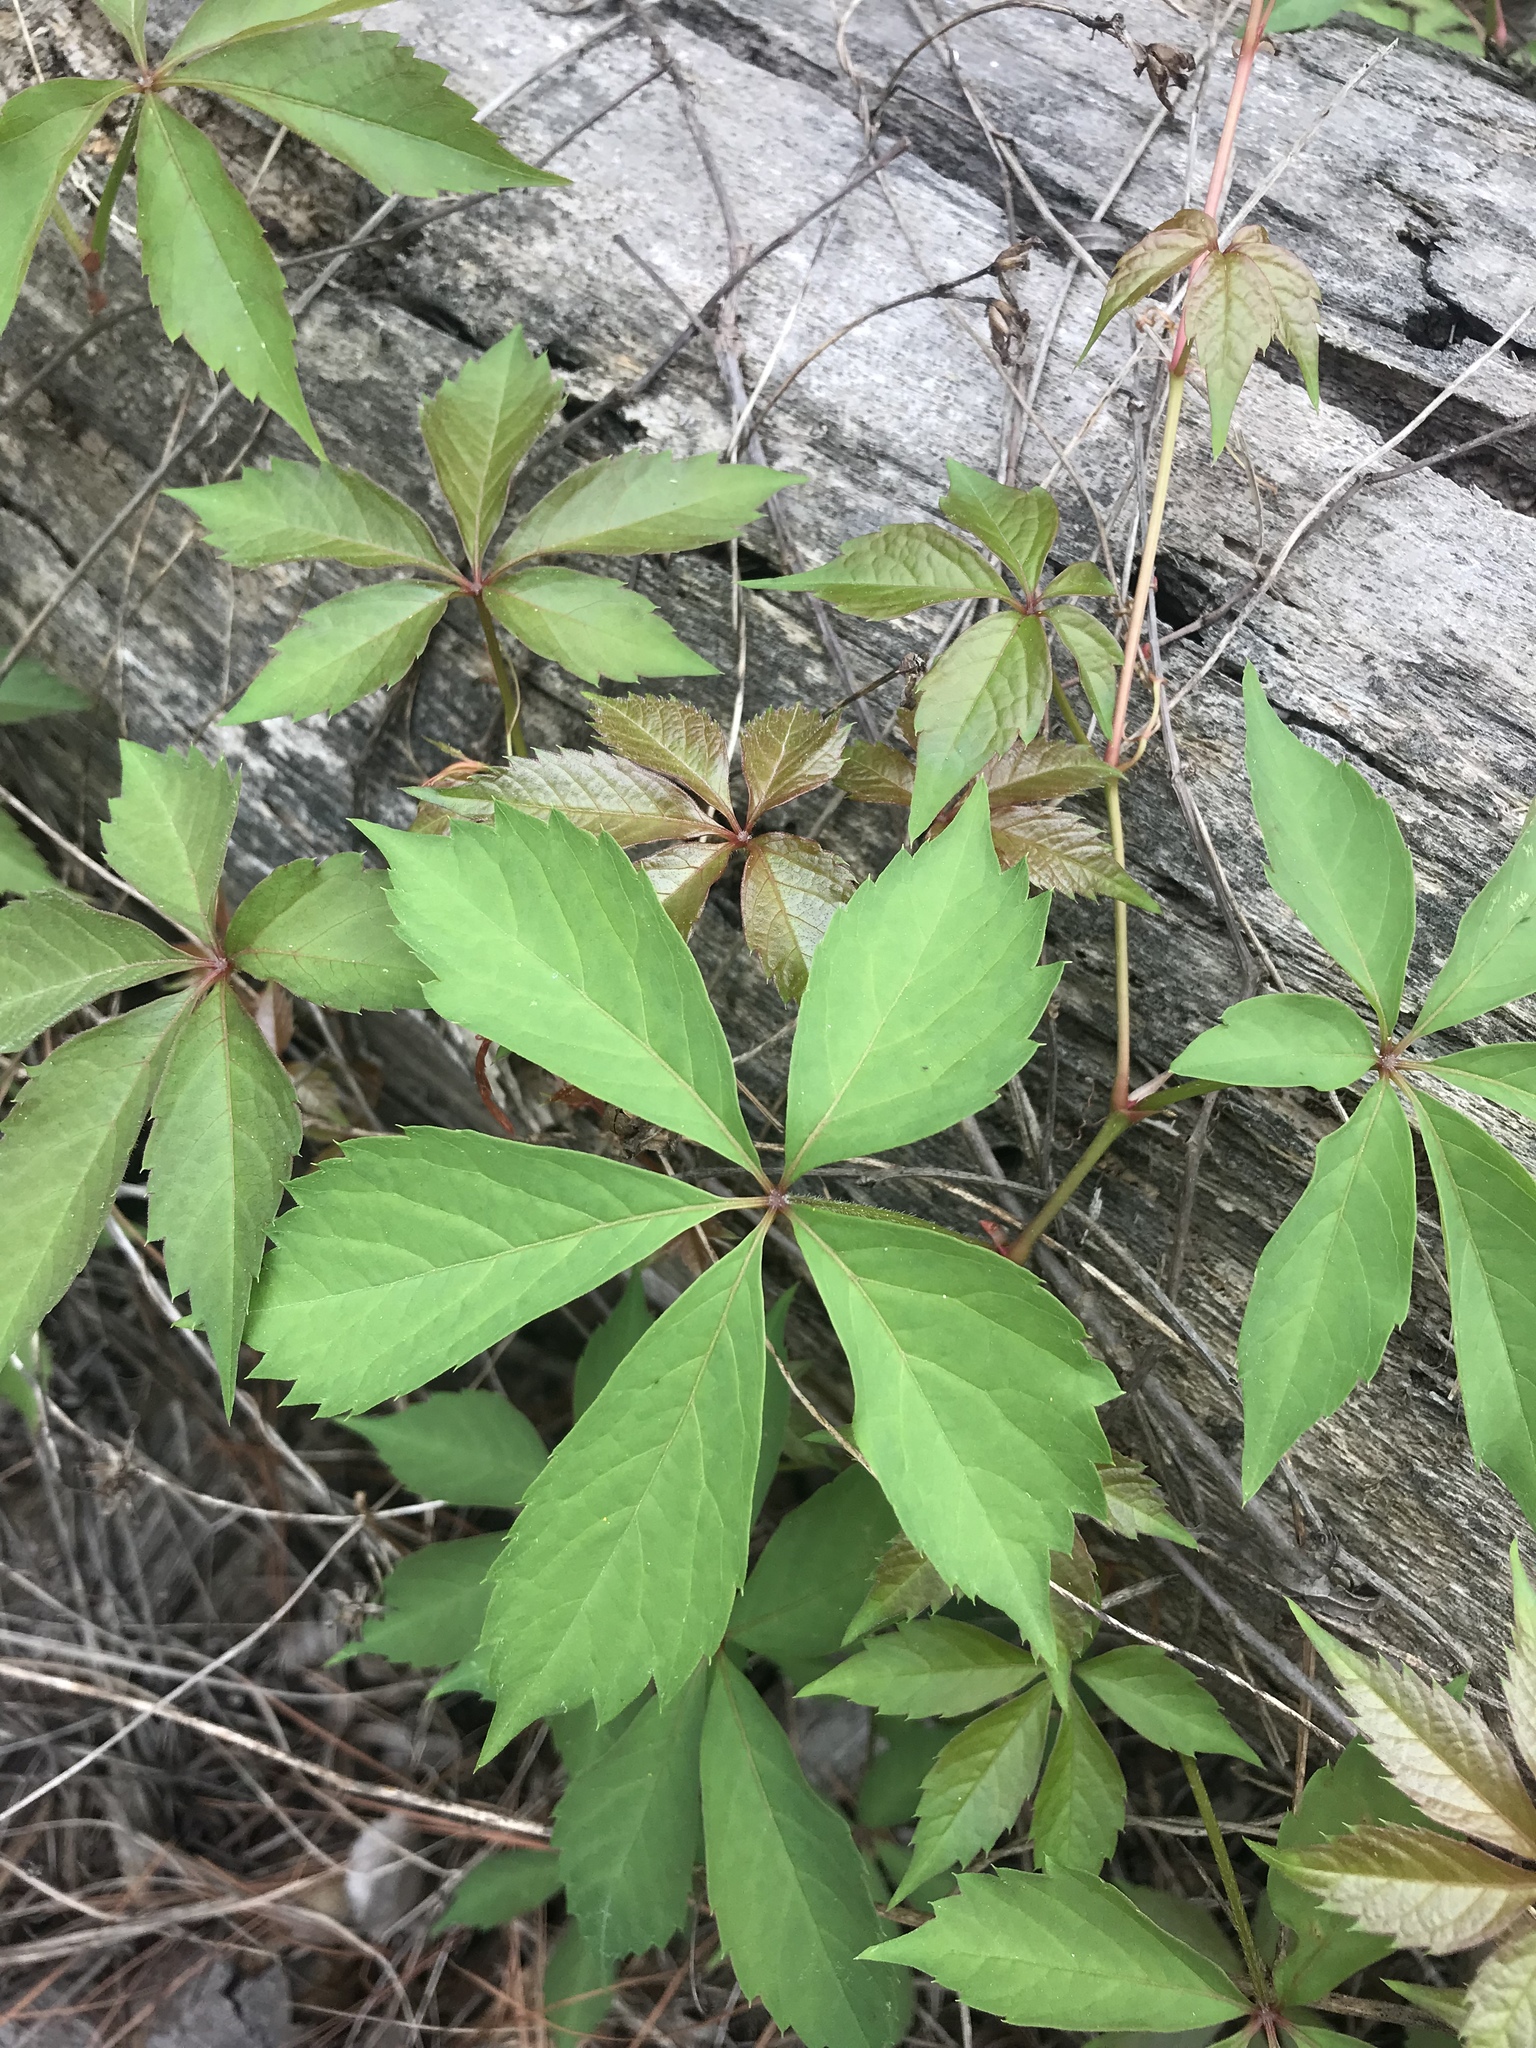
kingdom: Plantae
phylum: Tracheophyta
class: Magnoliopsida
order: Vitales
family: Vitaceae
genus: Parthenocissus
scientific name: Parthenocissus quinquefolia
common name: Virginia-creeper
